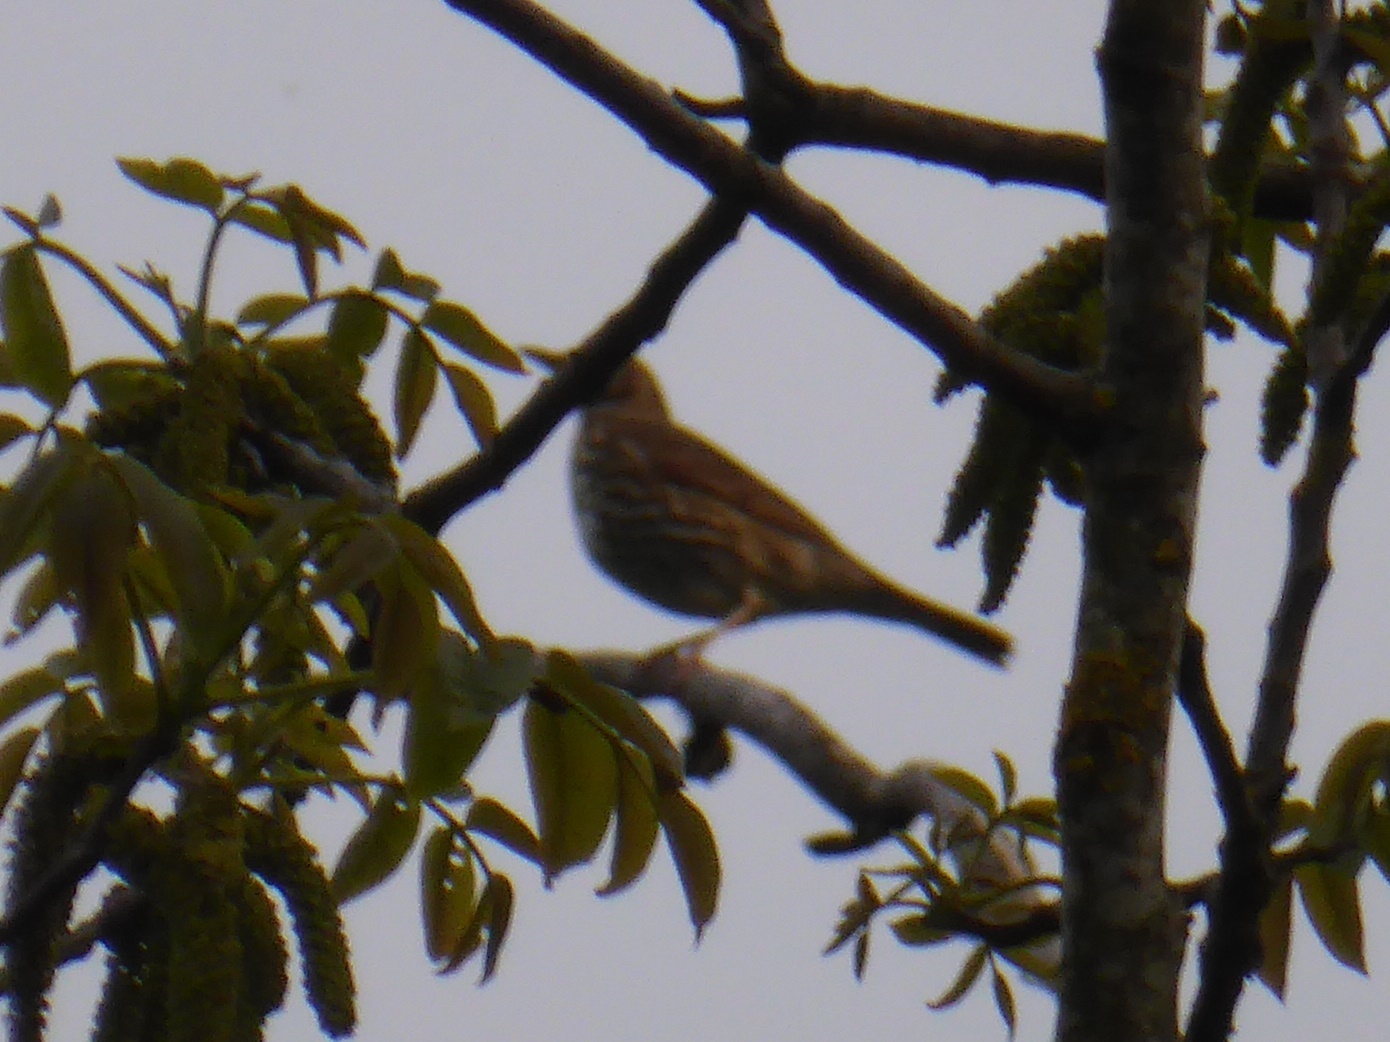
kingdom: Animalia
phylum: Chordata
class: Aves
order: Passeriformes
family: Turdidae
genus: Turdus
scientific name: Turdus philomelos
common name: Song thrush
